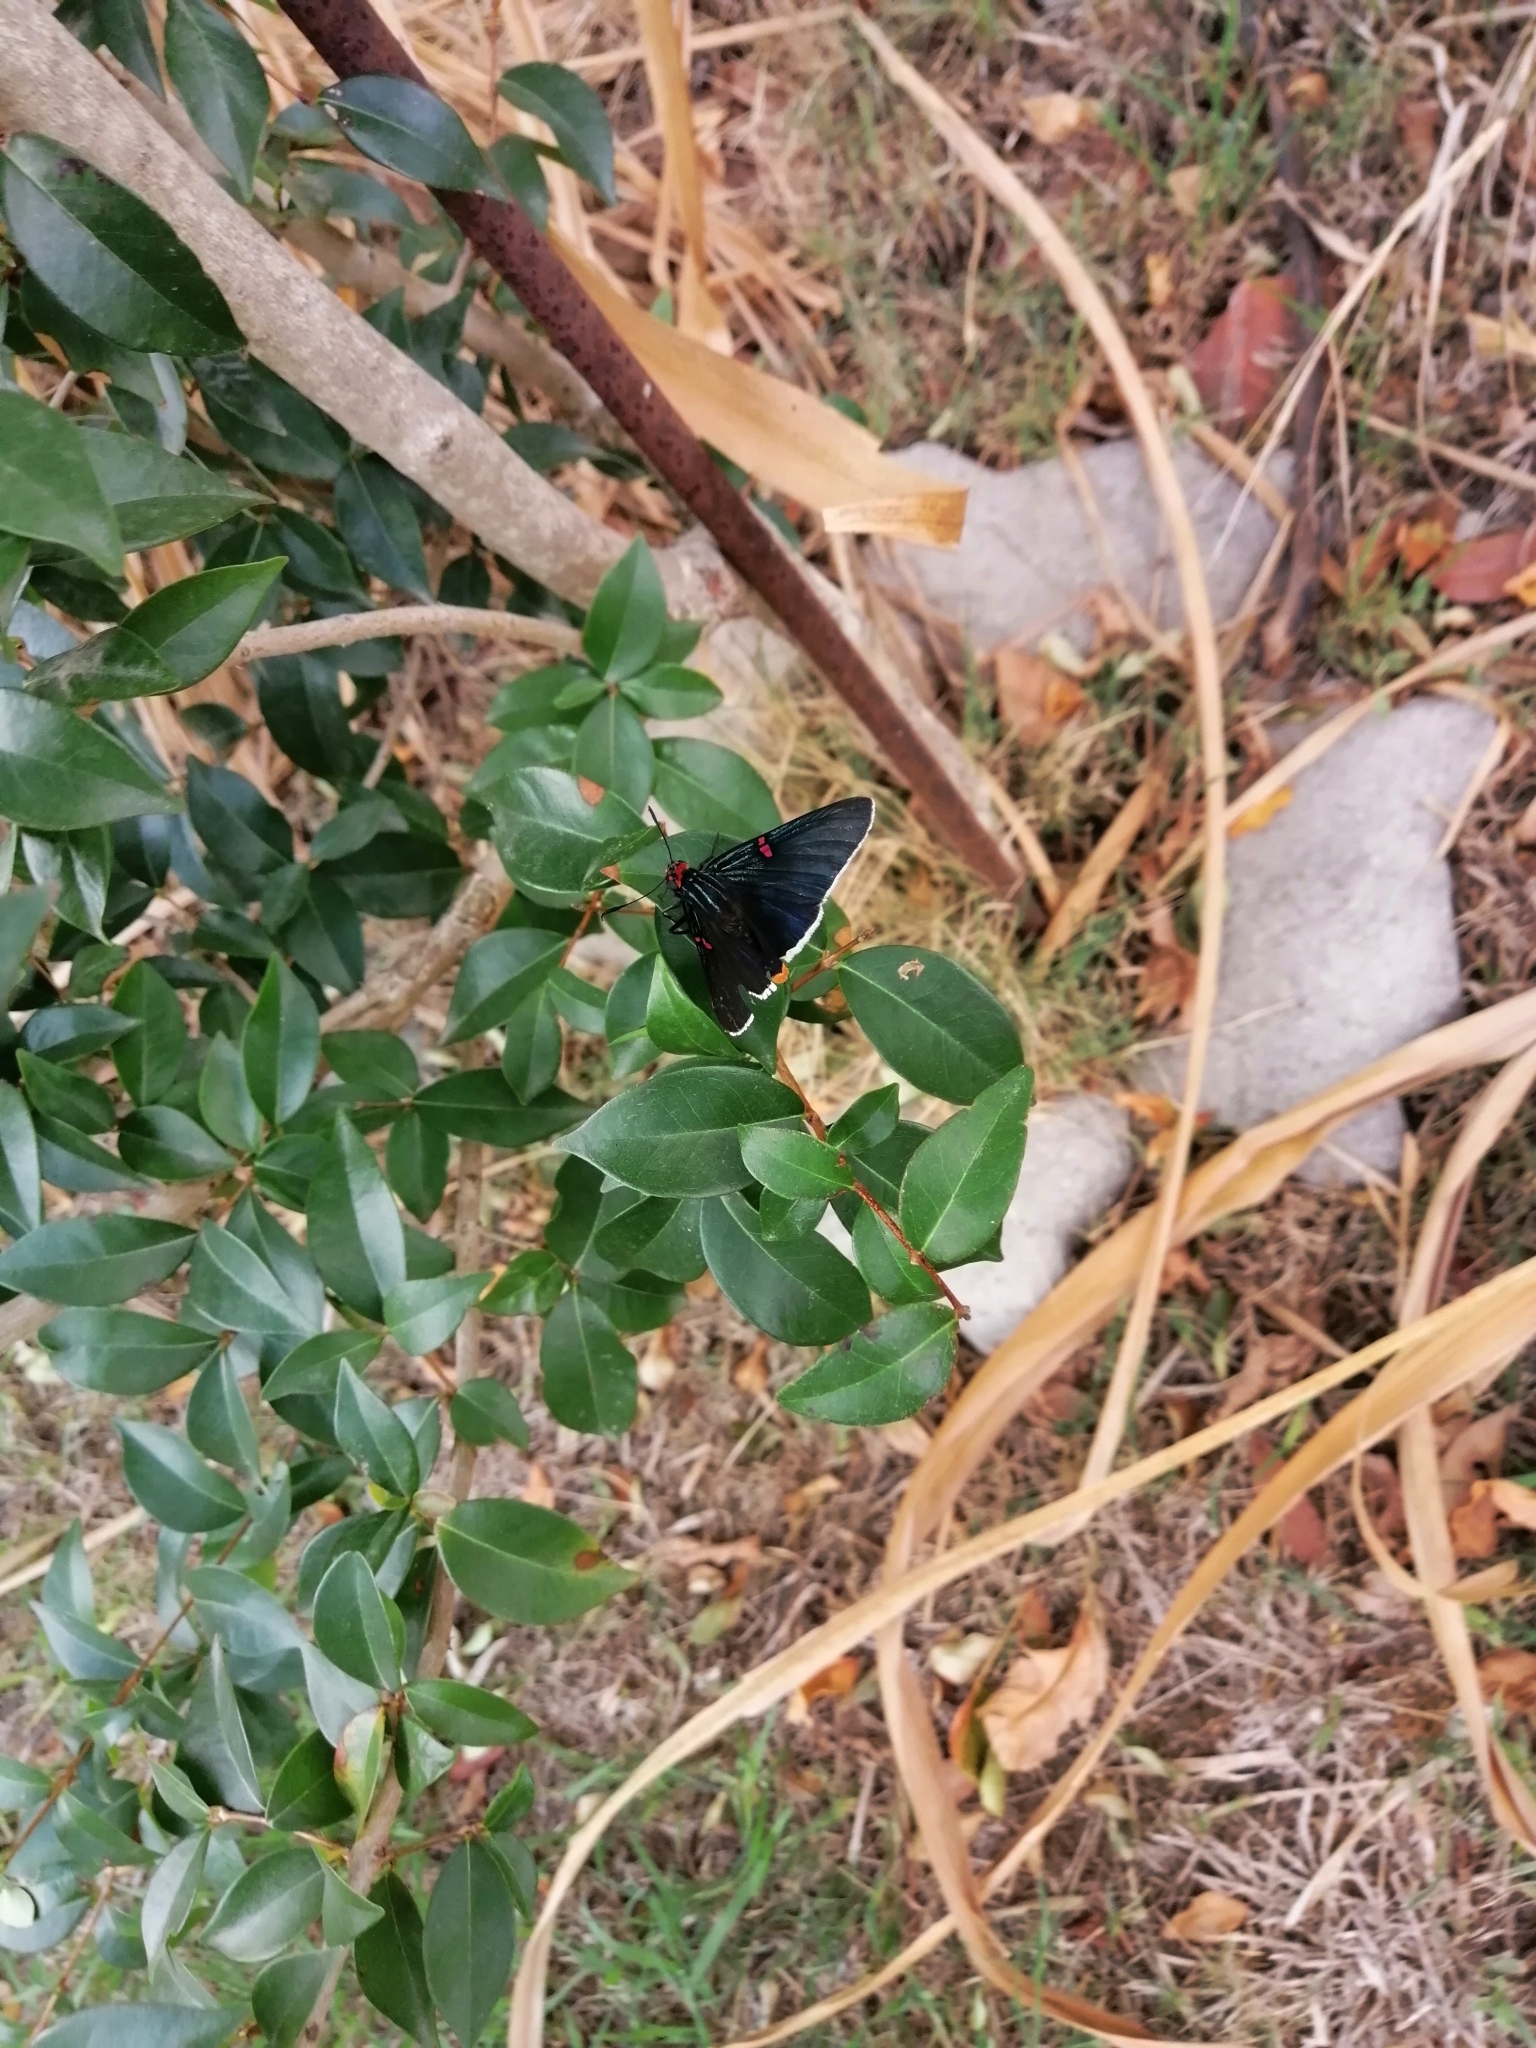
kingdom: Animalia
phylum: Arthropoda
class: Insecta
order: Lepidoptera
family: Hesperiidae
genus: Phocides
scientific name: Phocides polybius
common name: Guava skipper
